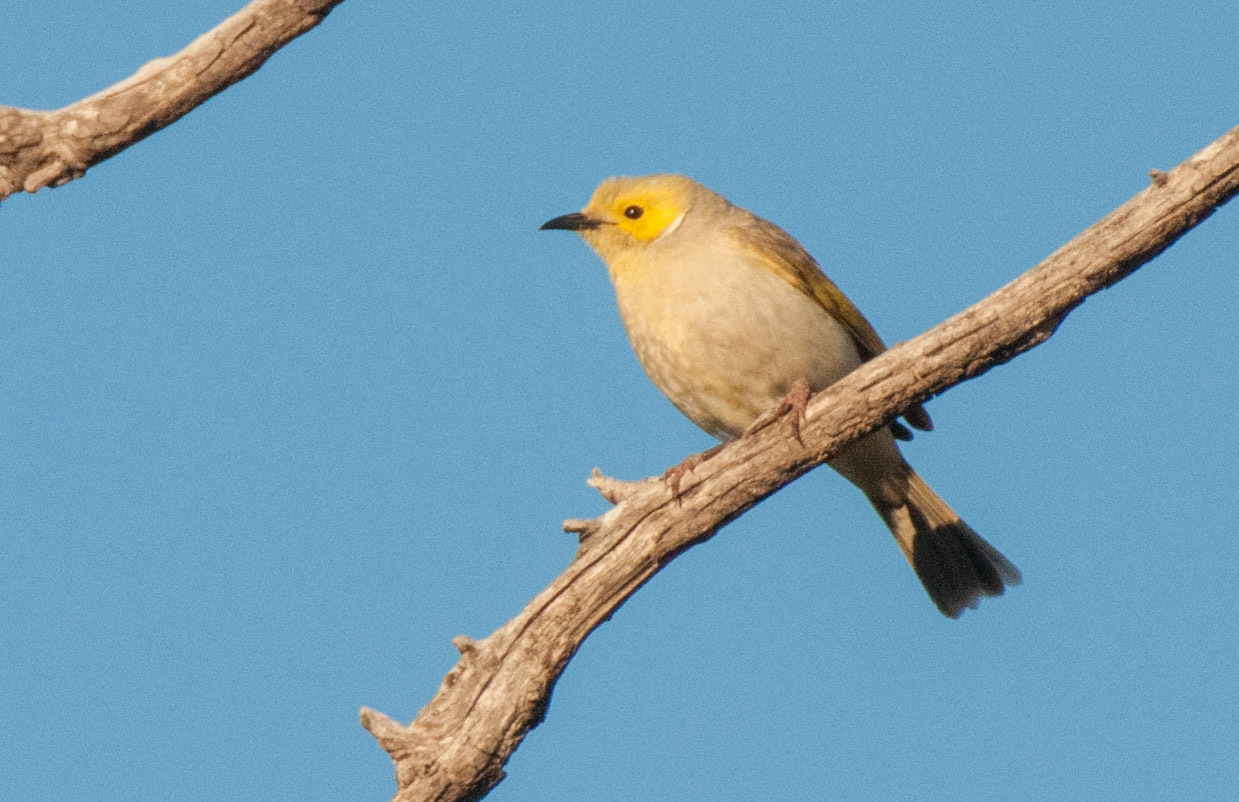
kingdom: Animalia
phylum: Chordata
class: Aves
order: Passeriformes
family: Meliphagidae
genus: Ptilotula
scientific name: Ptilotula penicillata
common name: White-plumed honeyeater
